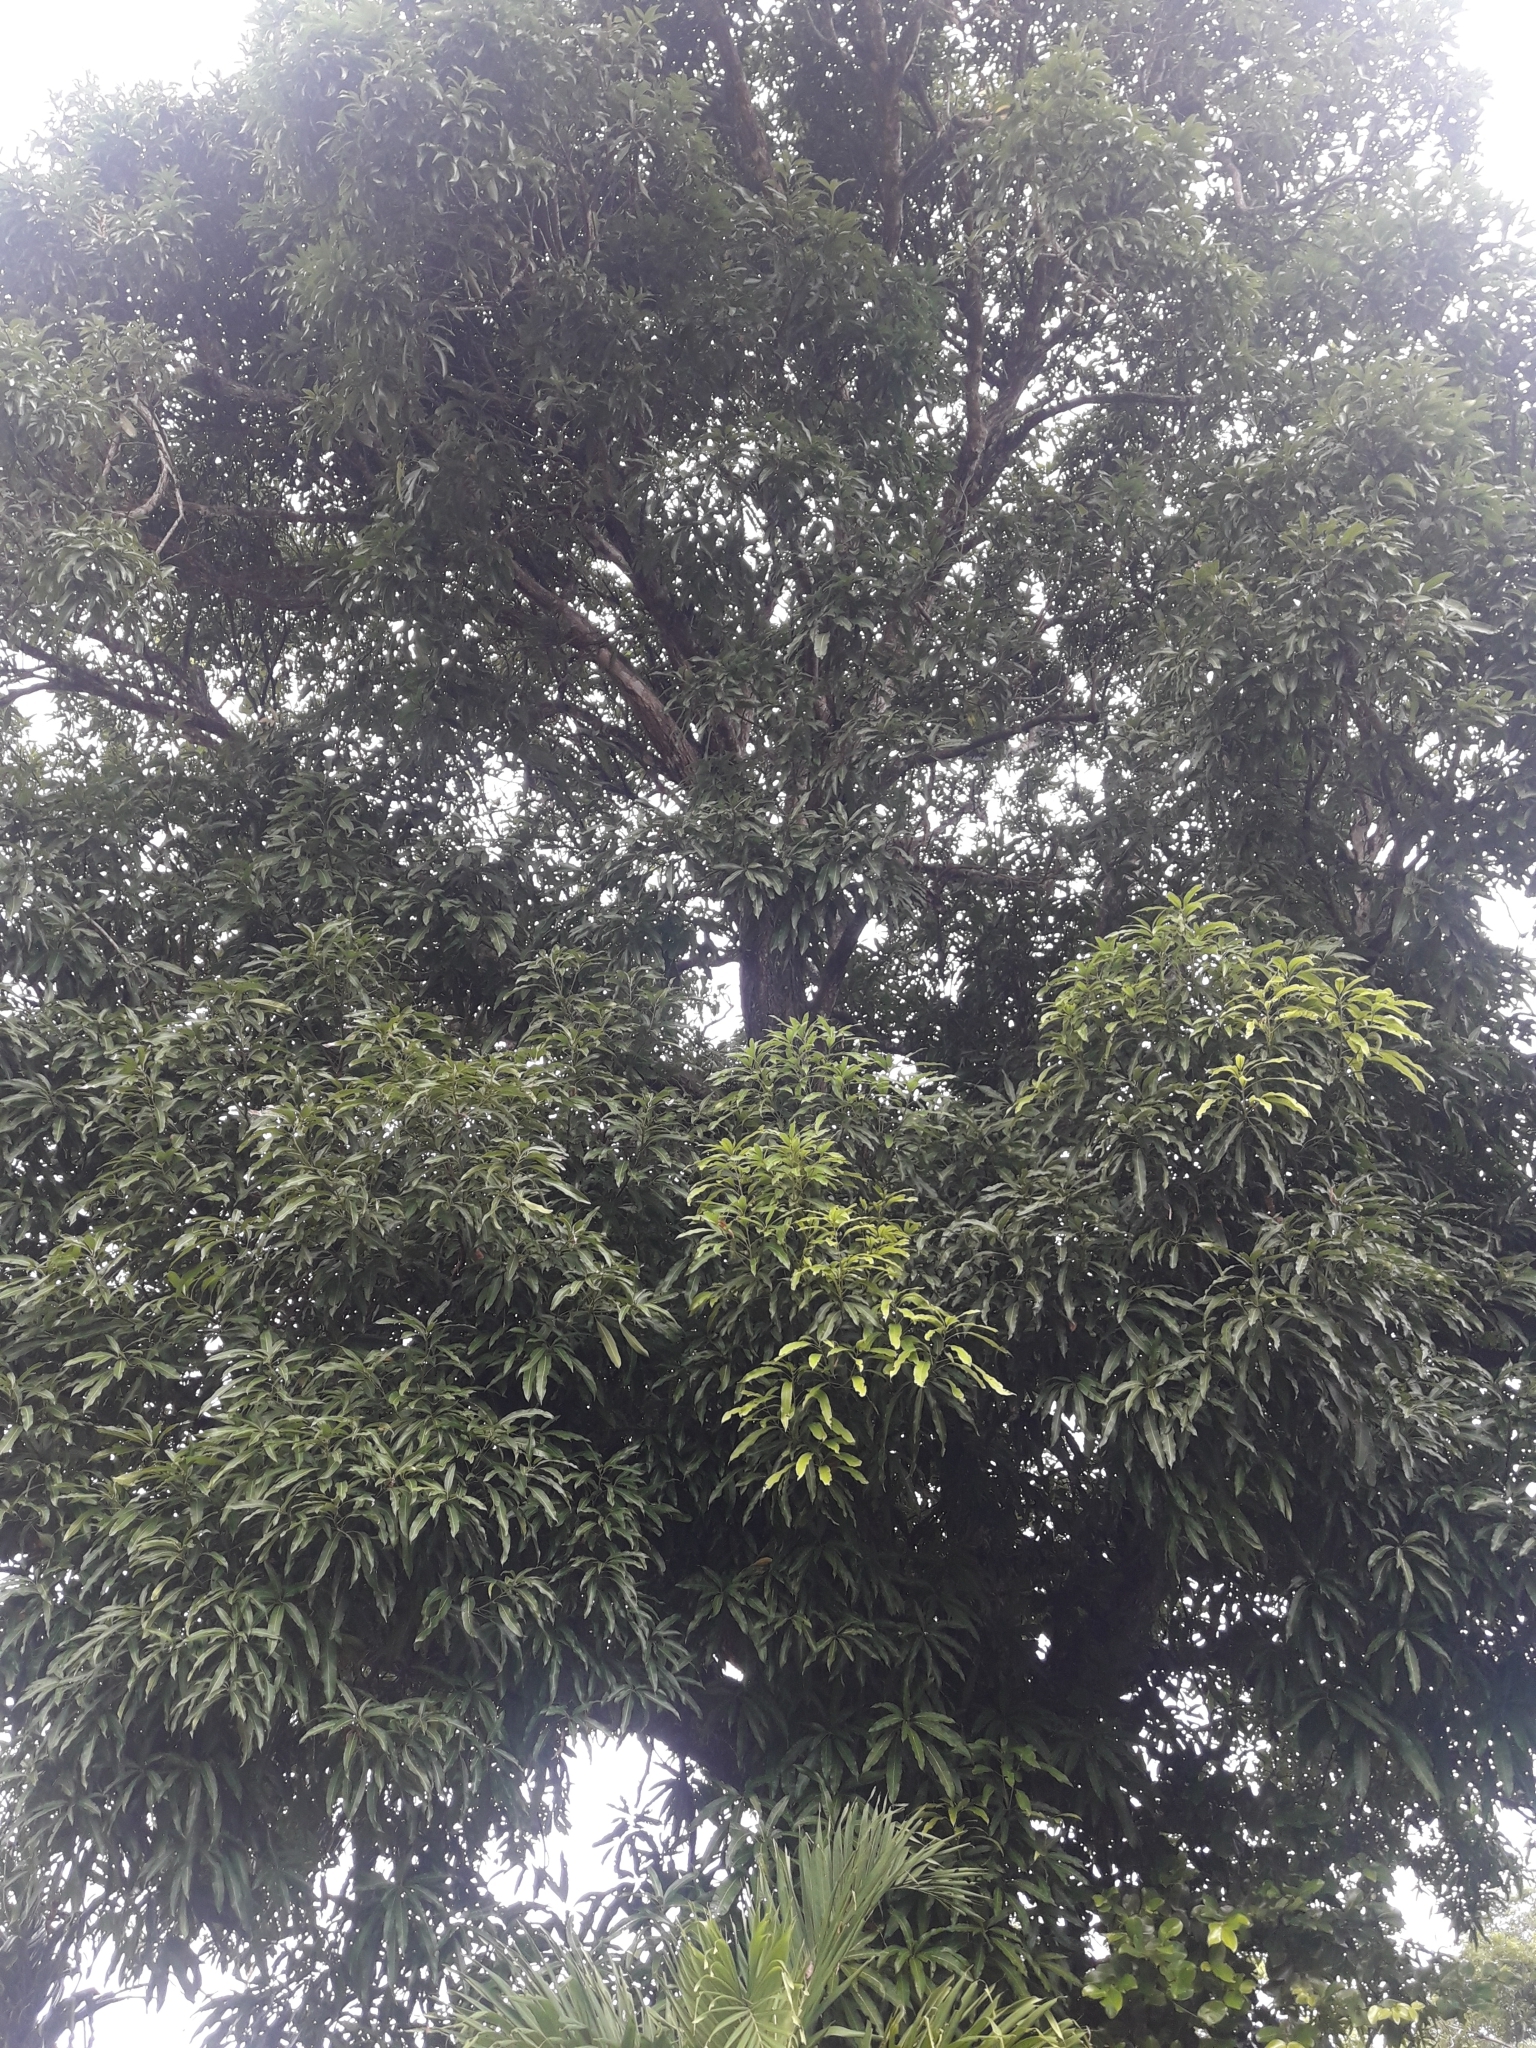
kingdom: Plantae
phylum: Tracheophyta
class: Magnoliopsida
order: Sapindales
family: Anacardiaceae
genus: Mangifera
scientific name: Mangifera indica
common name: Mango
